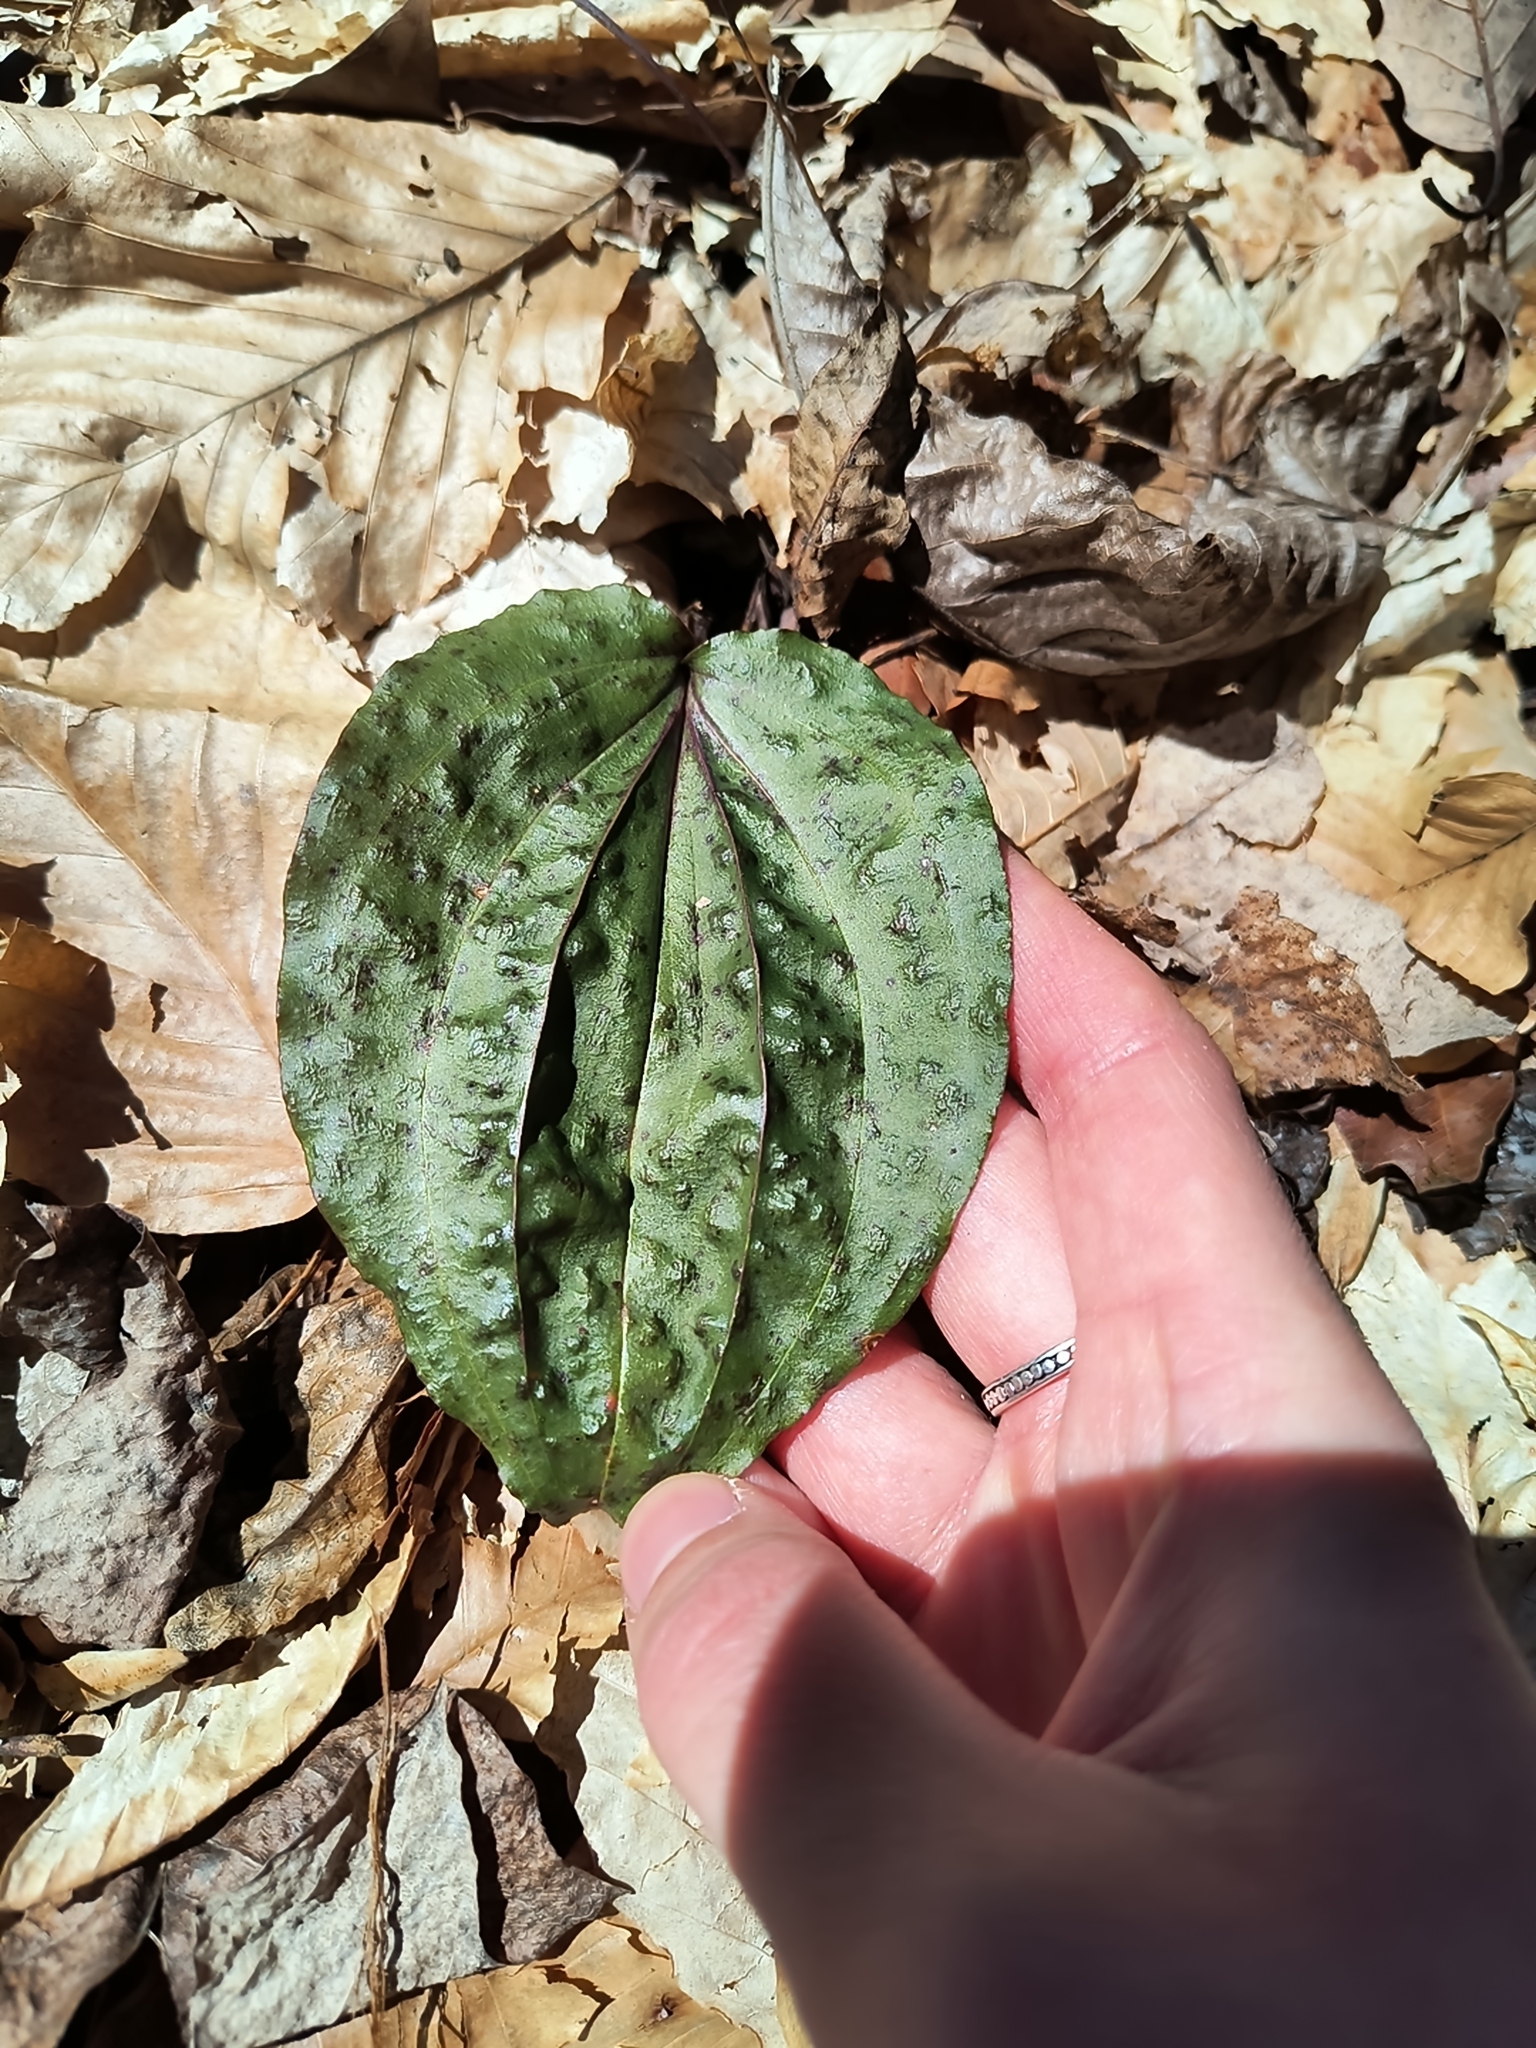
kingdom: Plantae
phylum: Tracheophyta
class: Liliopsida
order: Asparagales
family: Orchidaceae
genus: Tipularia
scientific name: Tipularia discolor
